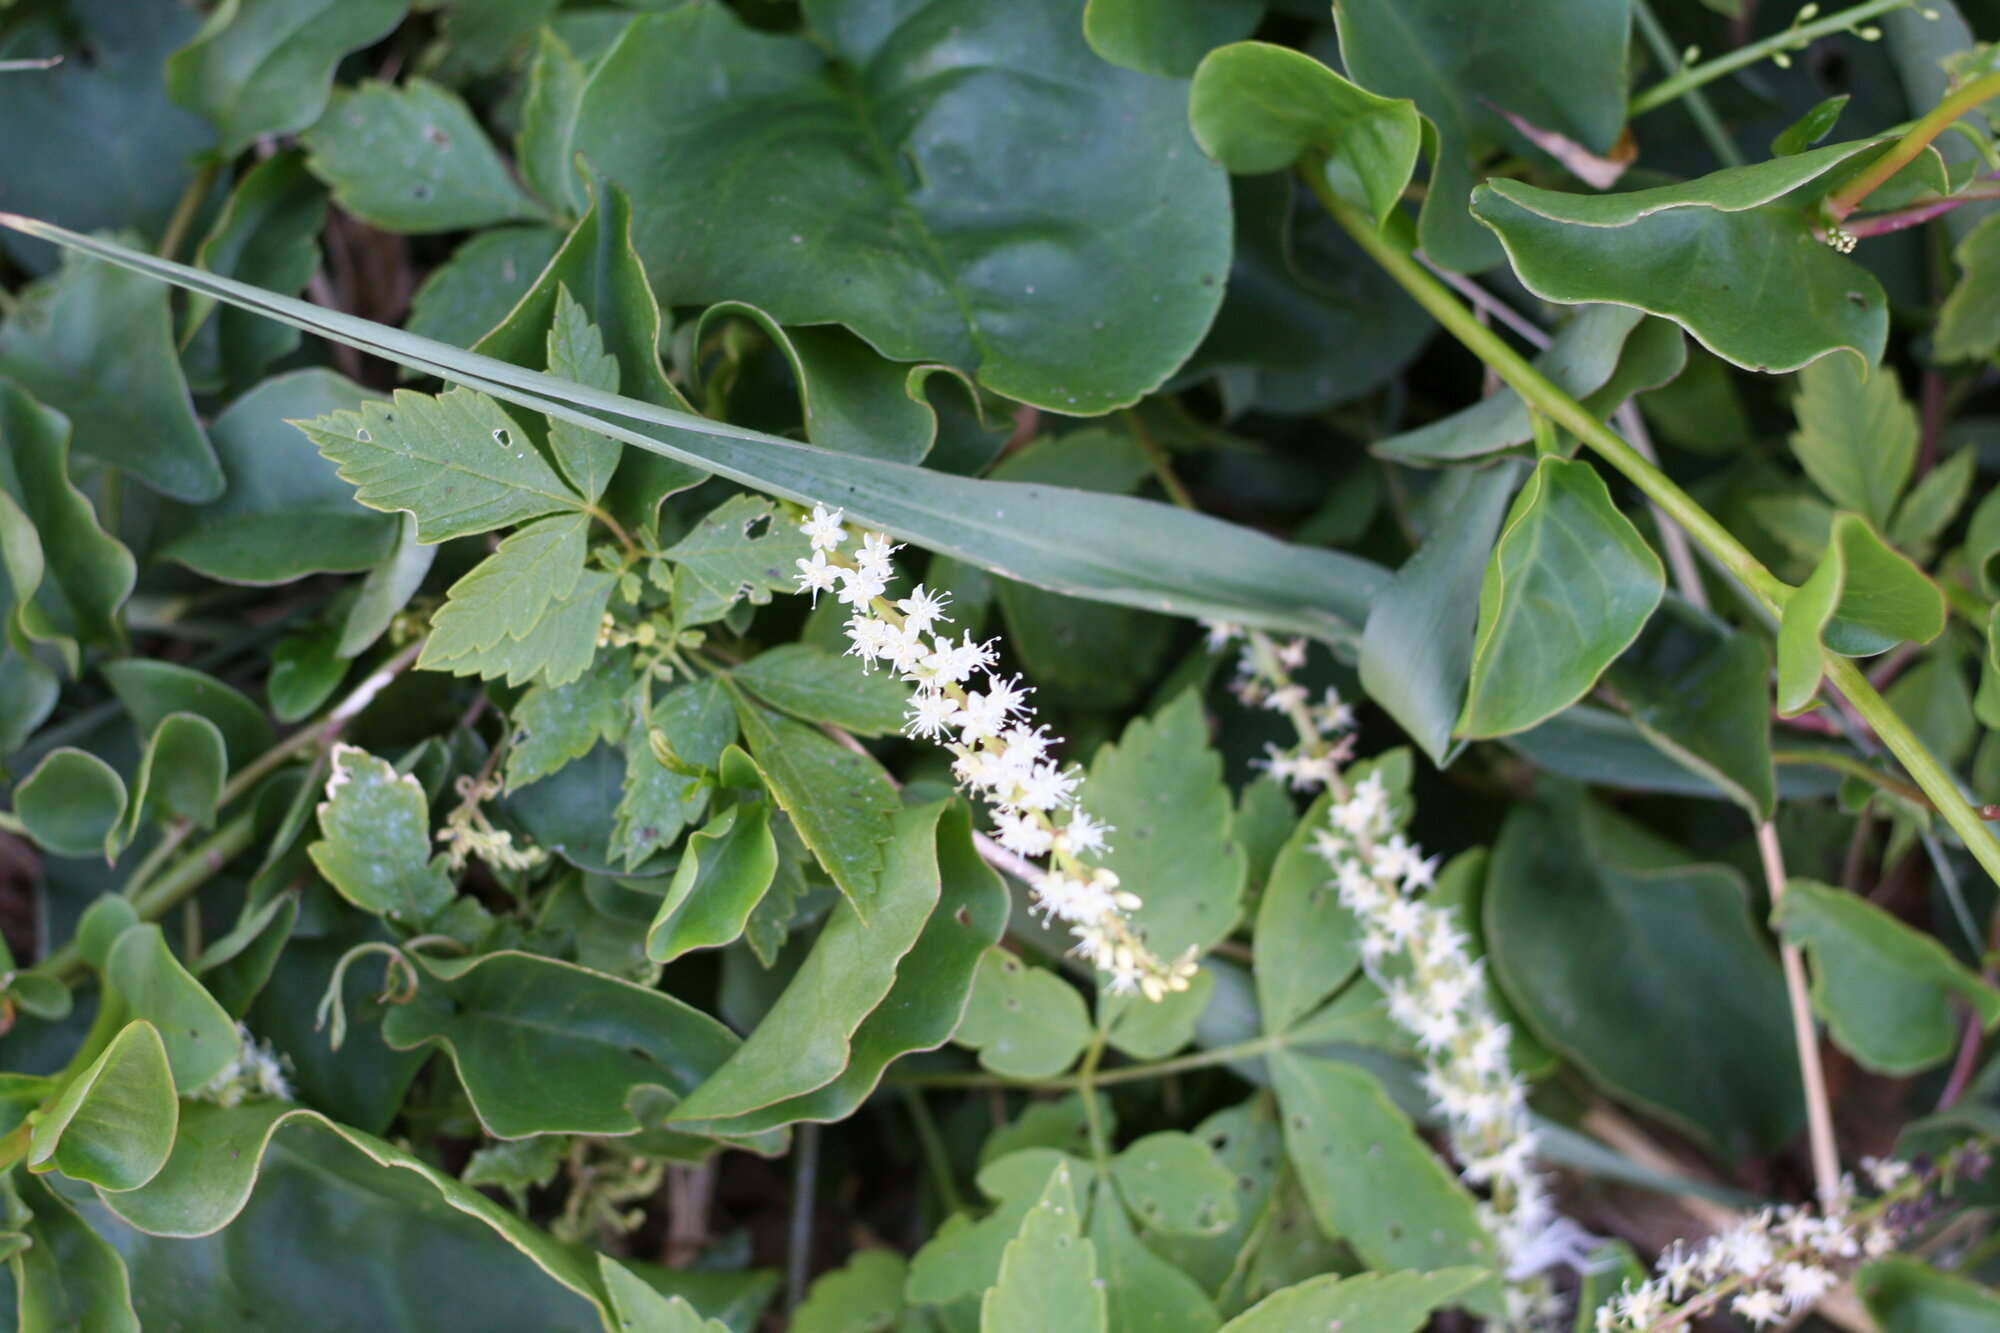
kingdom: Plantae
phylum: Tracheophyta
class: Magnoliopsida
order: Caryophyllales
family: Basellaceae
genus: Anredera
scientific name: Anredera cordifolia
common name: Heartleaf madeiravine
